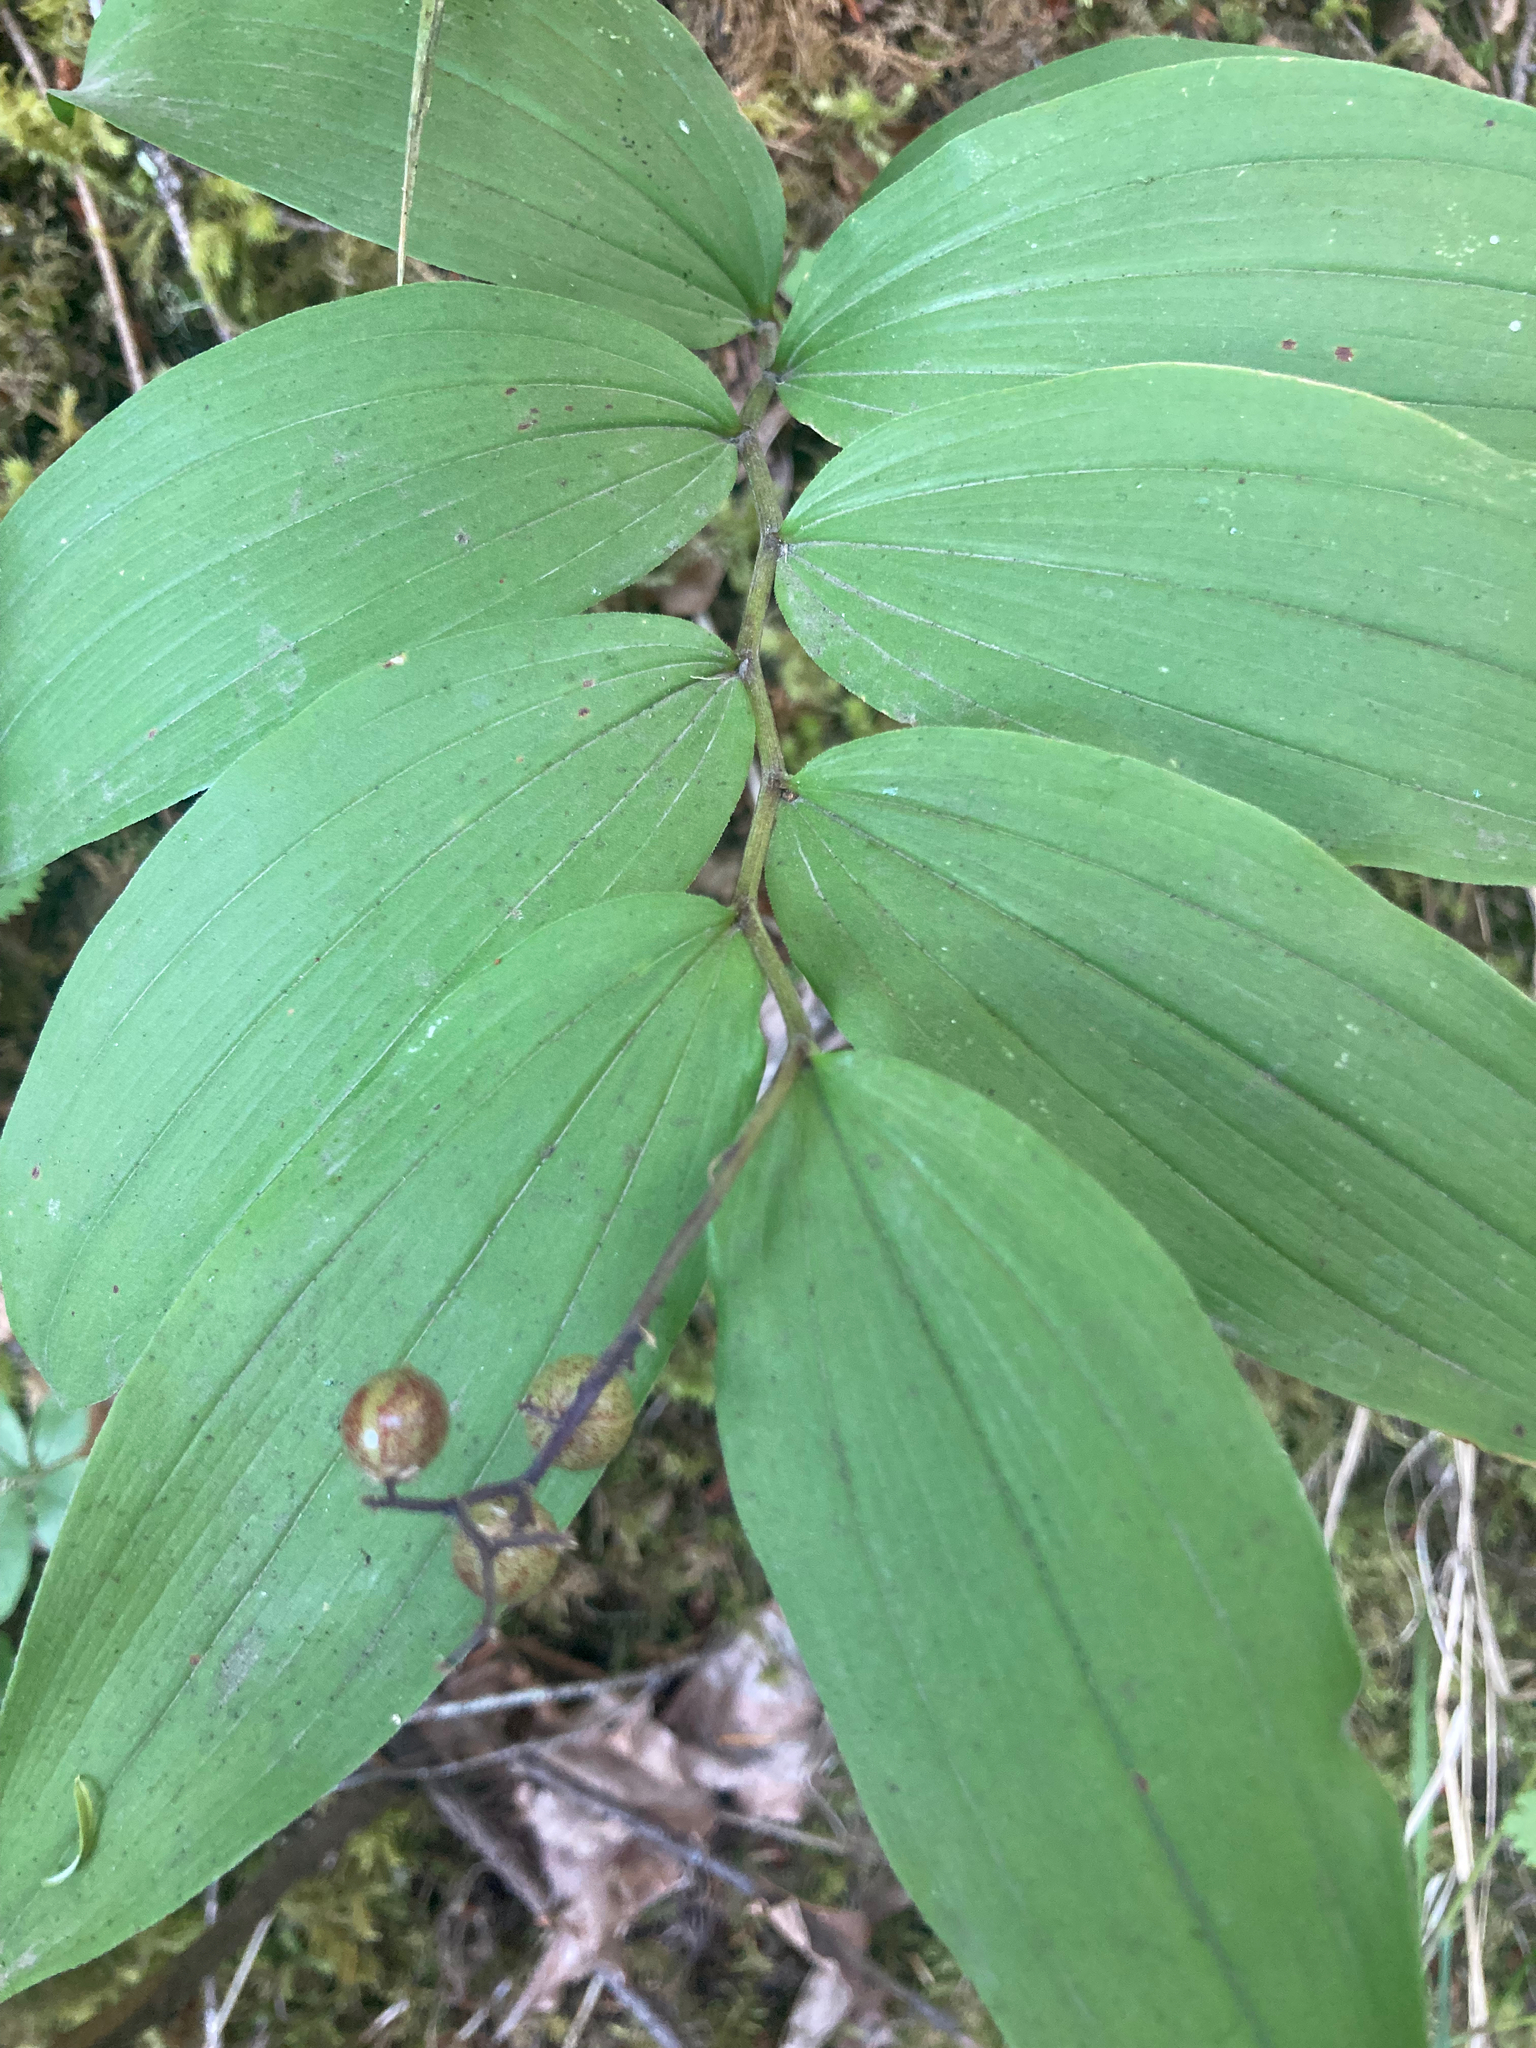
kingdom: Plantae
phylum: Tracheophyta
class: Liliopsida
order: Asparagales
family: Asparagaceae
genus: Maianthemum
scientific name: Maianthemum racemosum
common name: False spikenard
